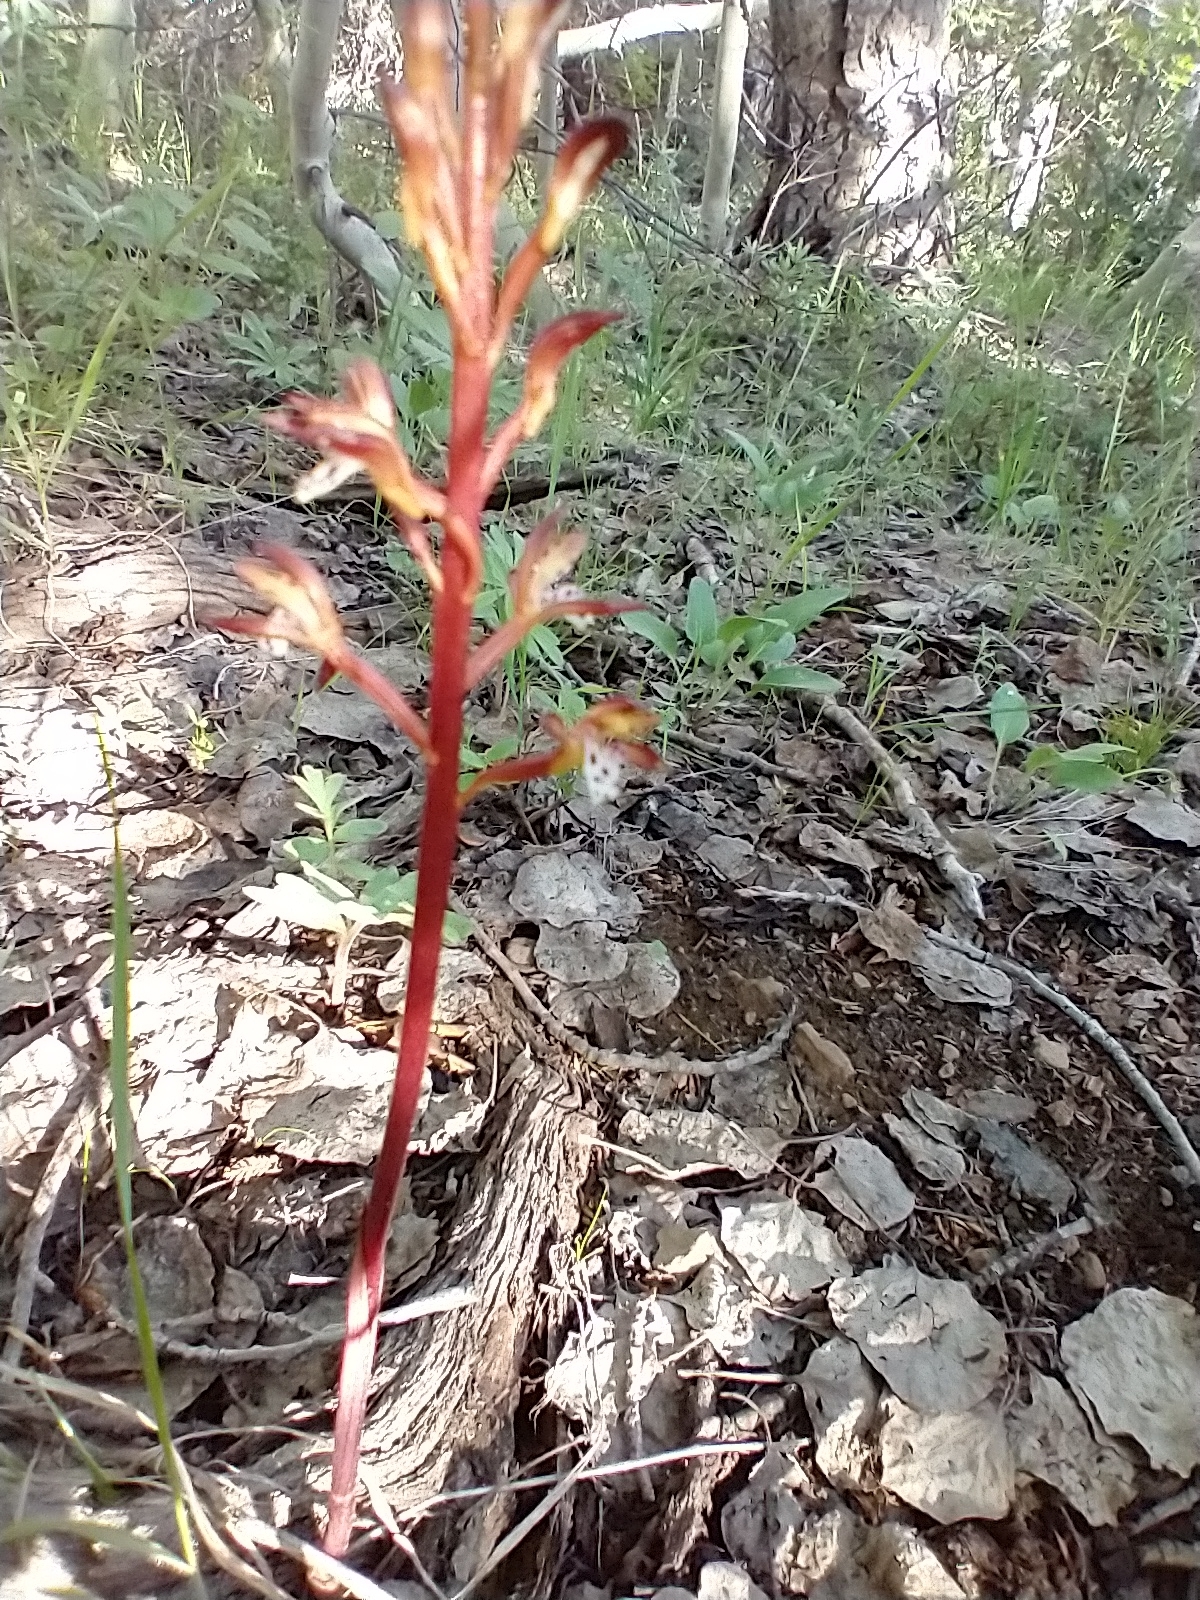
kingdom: Plantae
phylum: Tracheophyta
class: Liliopsida
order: Asparagales
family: Orchidaceae
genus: Corallorhiza
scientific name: Corallorhiza maculata
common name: Spotted coralroot
